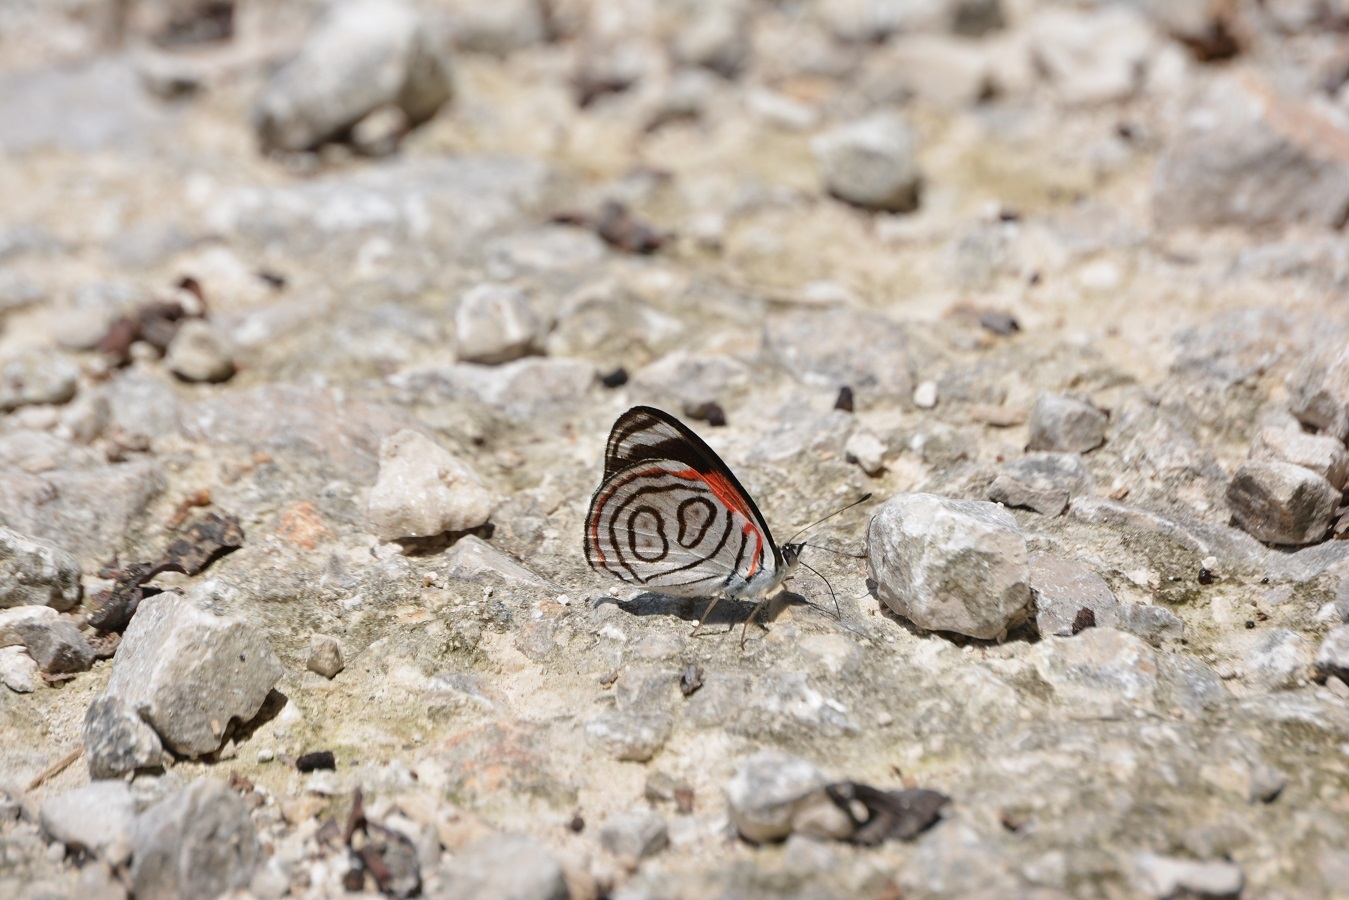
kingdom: Animalia
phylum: Arthropoda
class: Insecta
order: Lepidoptera
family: Nymphalidae
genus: Diaethria
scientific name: Diaethria astala
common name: Navy eighty-eight
